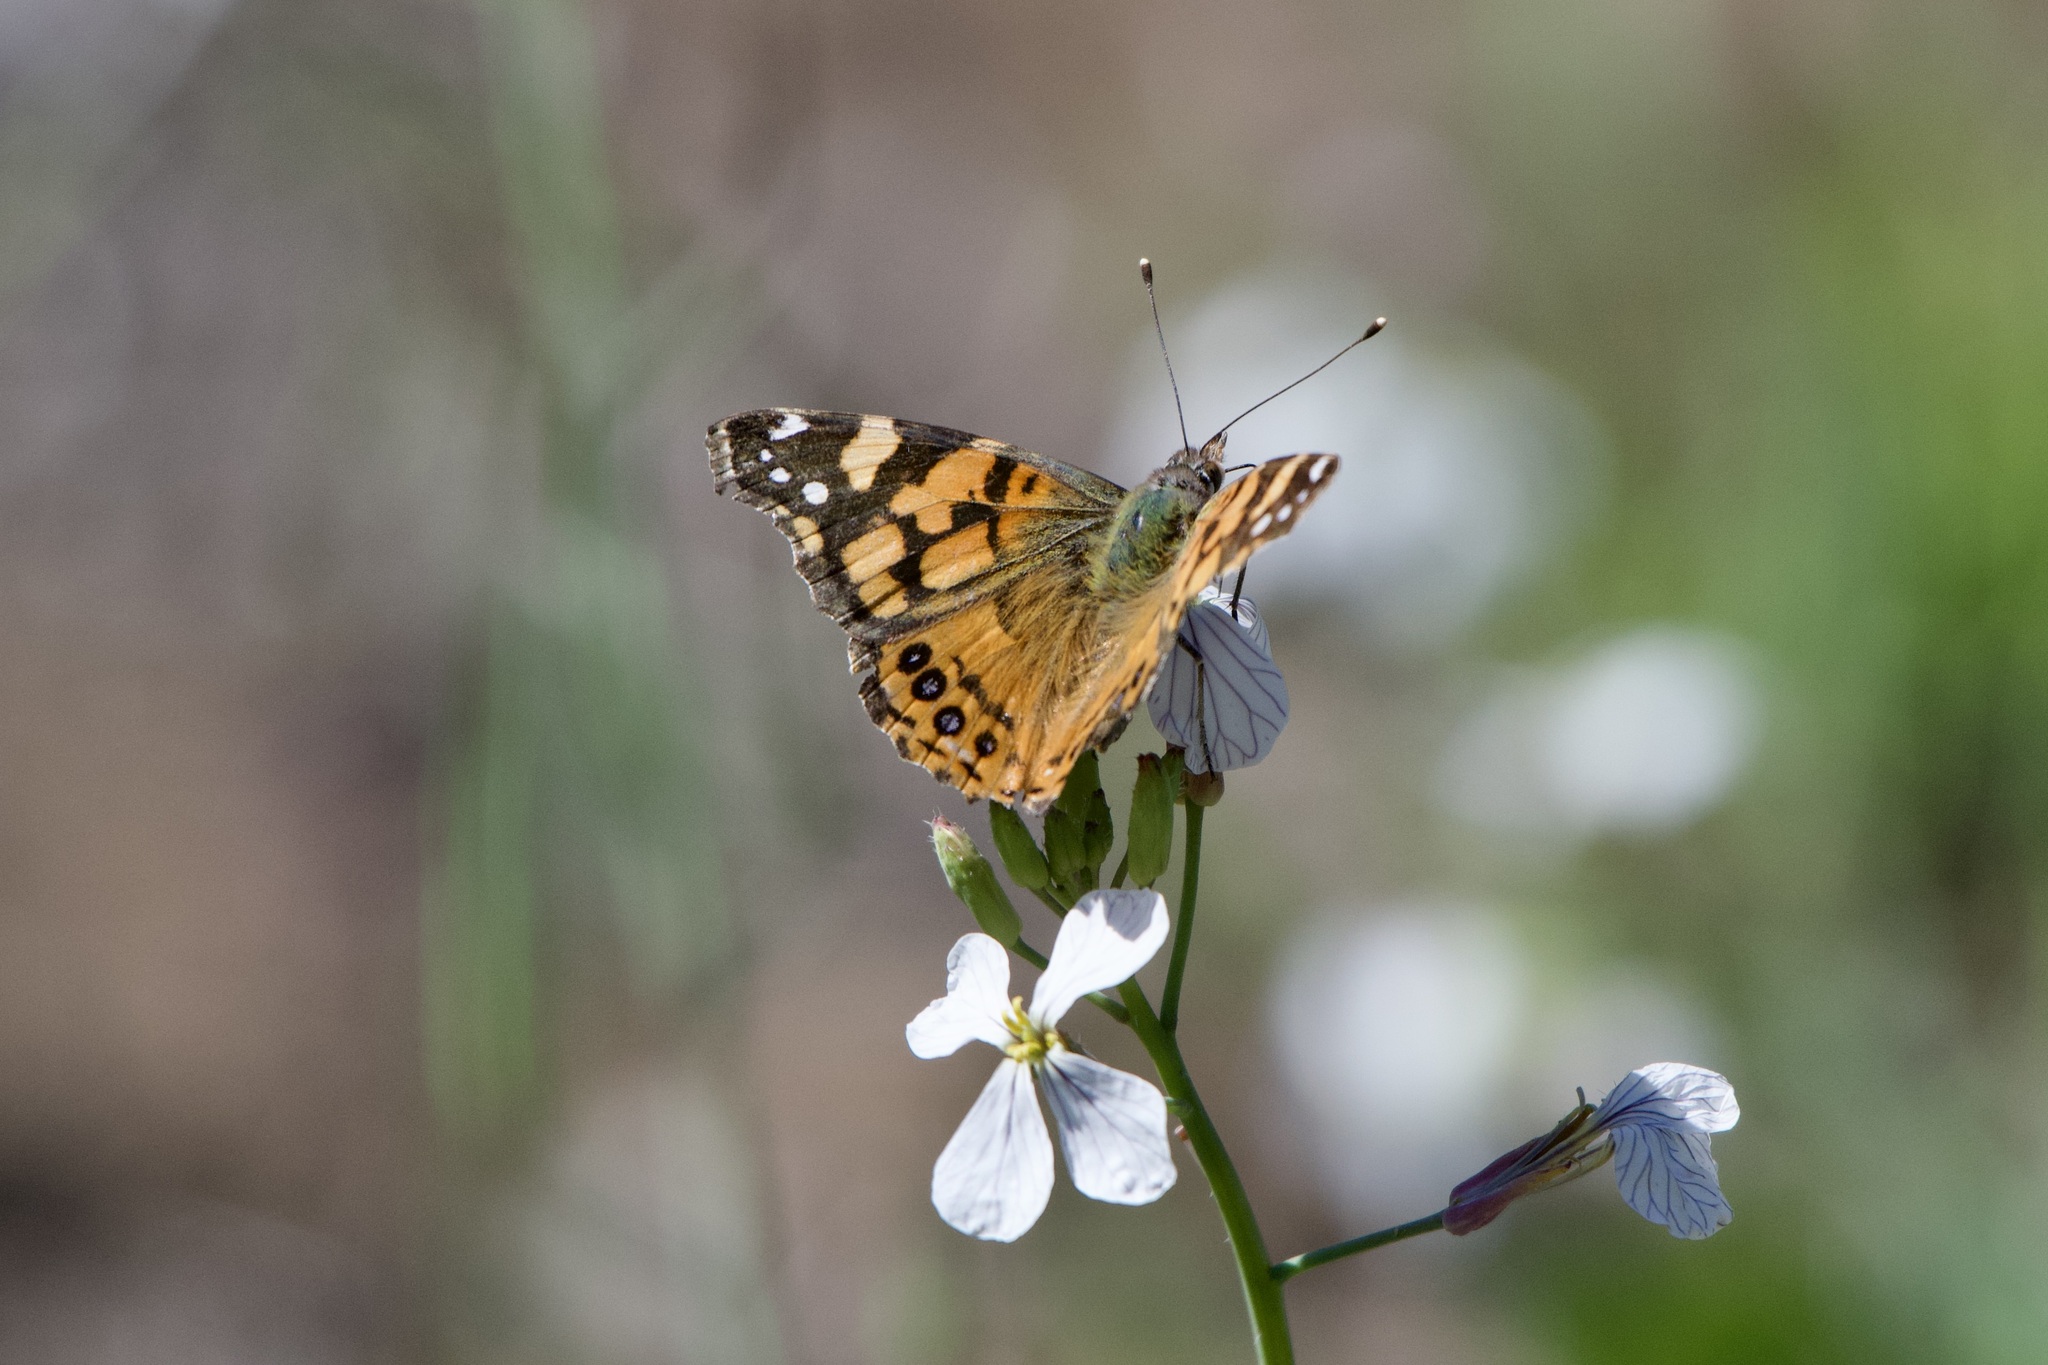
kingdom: Animalia
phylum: Arthropoda
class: Insecta
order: Lepidoptera
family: Nymphalidae
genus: Vanessa
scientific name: Vanessa annabella
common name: West coast lady
